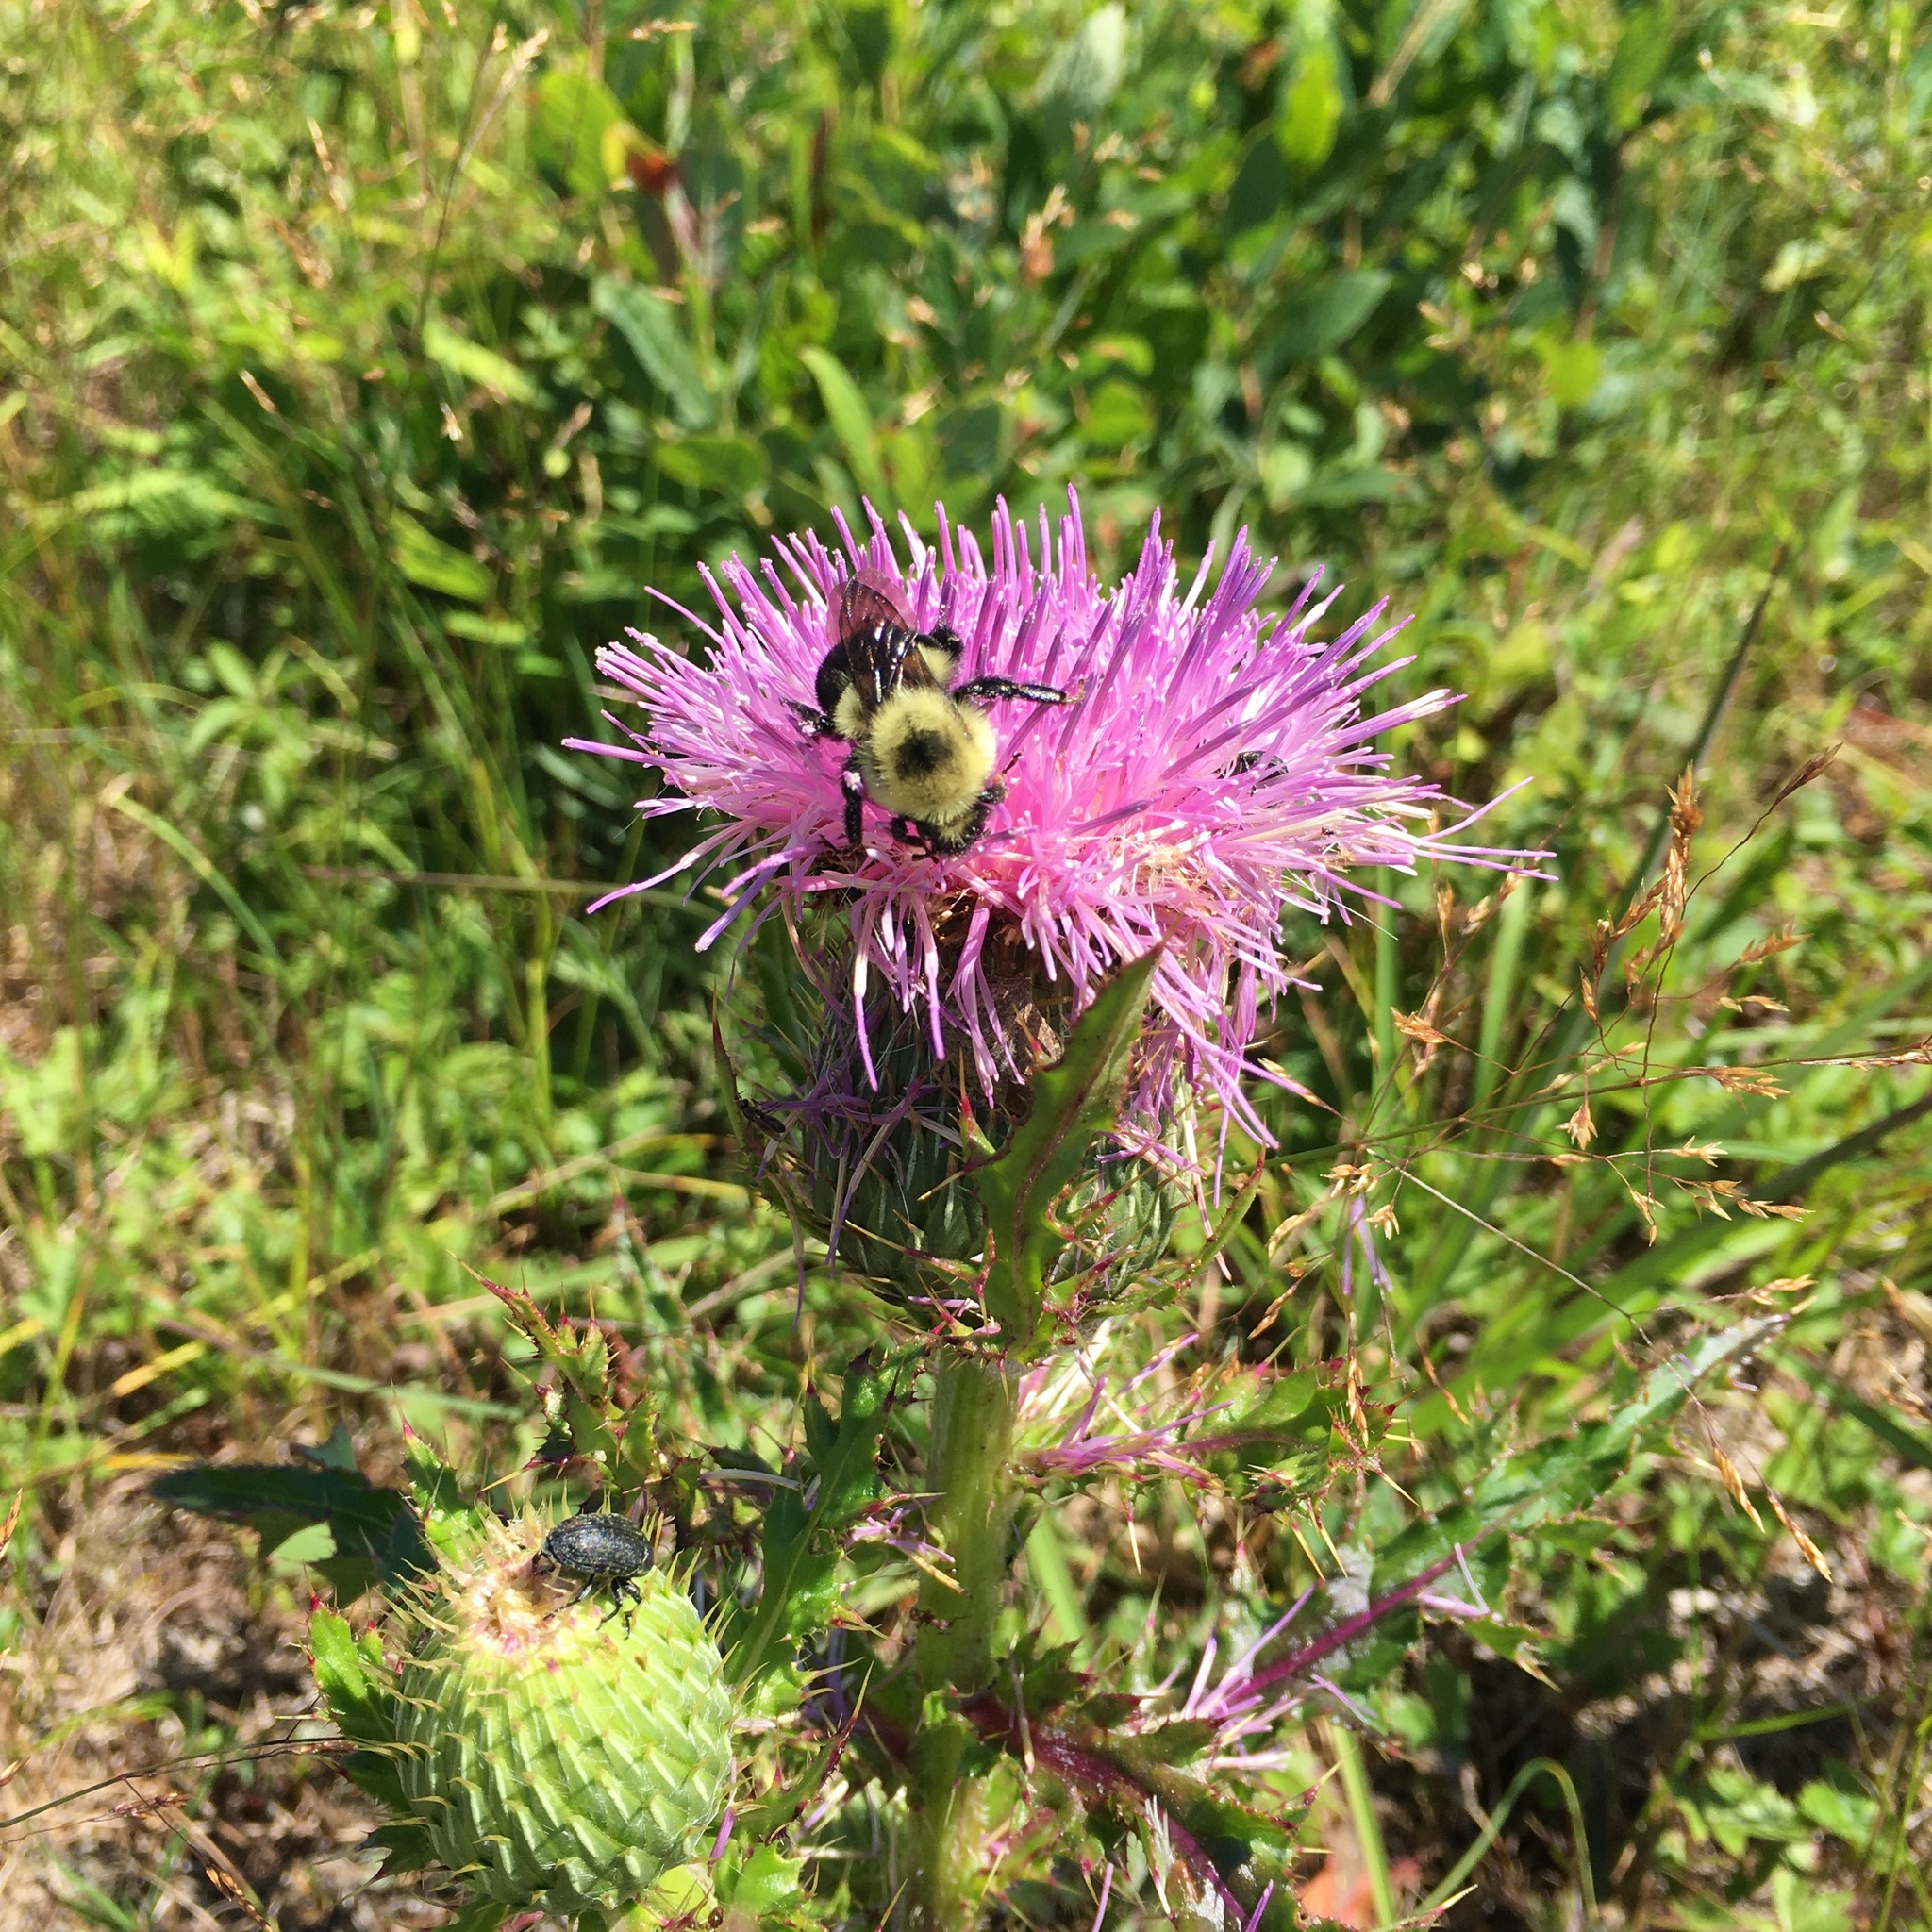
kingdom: Animalia
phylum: Arthropoda
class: Insecta
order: Hymenoptera
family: Apidae
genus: Bombus
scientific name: Bombus bimaculatus
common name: Two-spotted bumble bee
